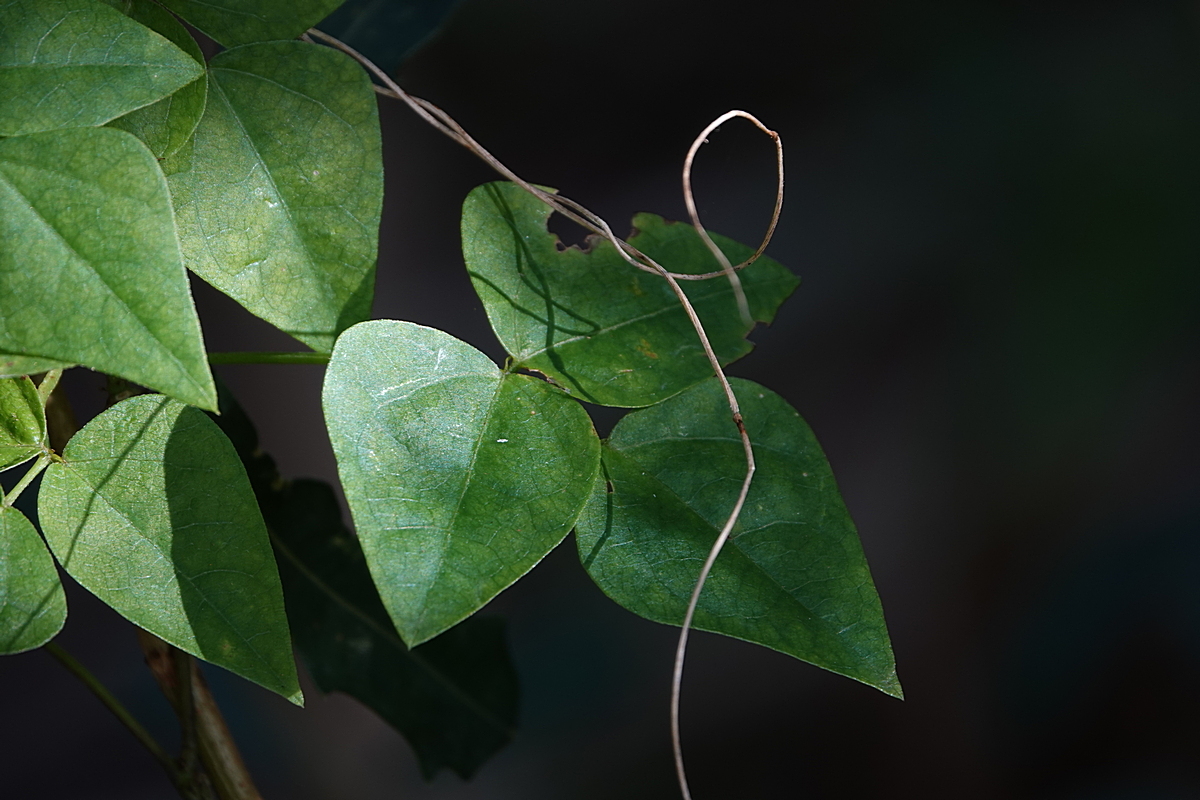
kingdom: Plantae
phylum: Tracheophyta
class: Magnoliopsida
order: Fabales
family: Fabaceae
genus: Dipogon
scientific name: Dipogon lignosus
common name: Okie bean
